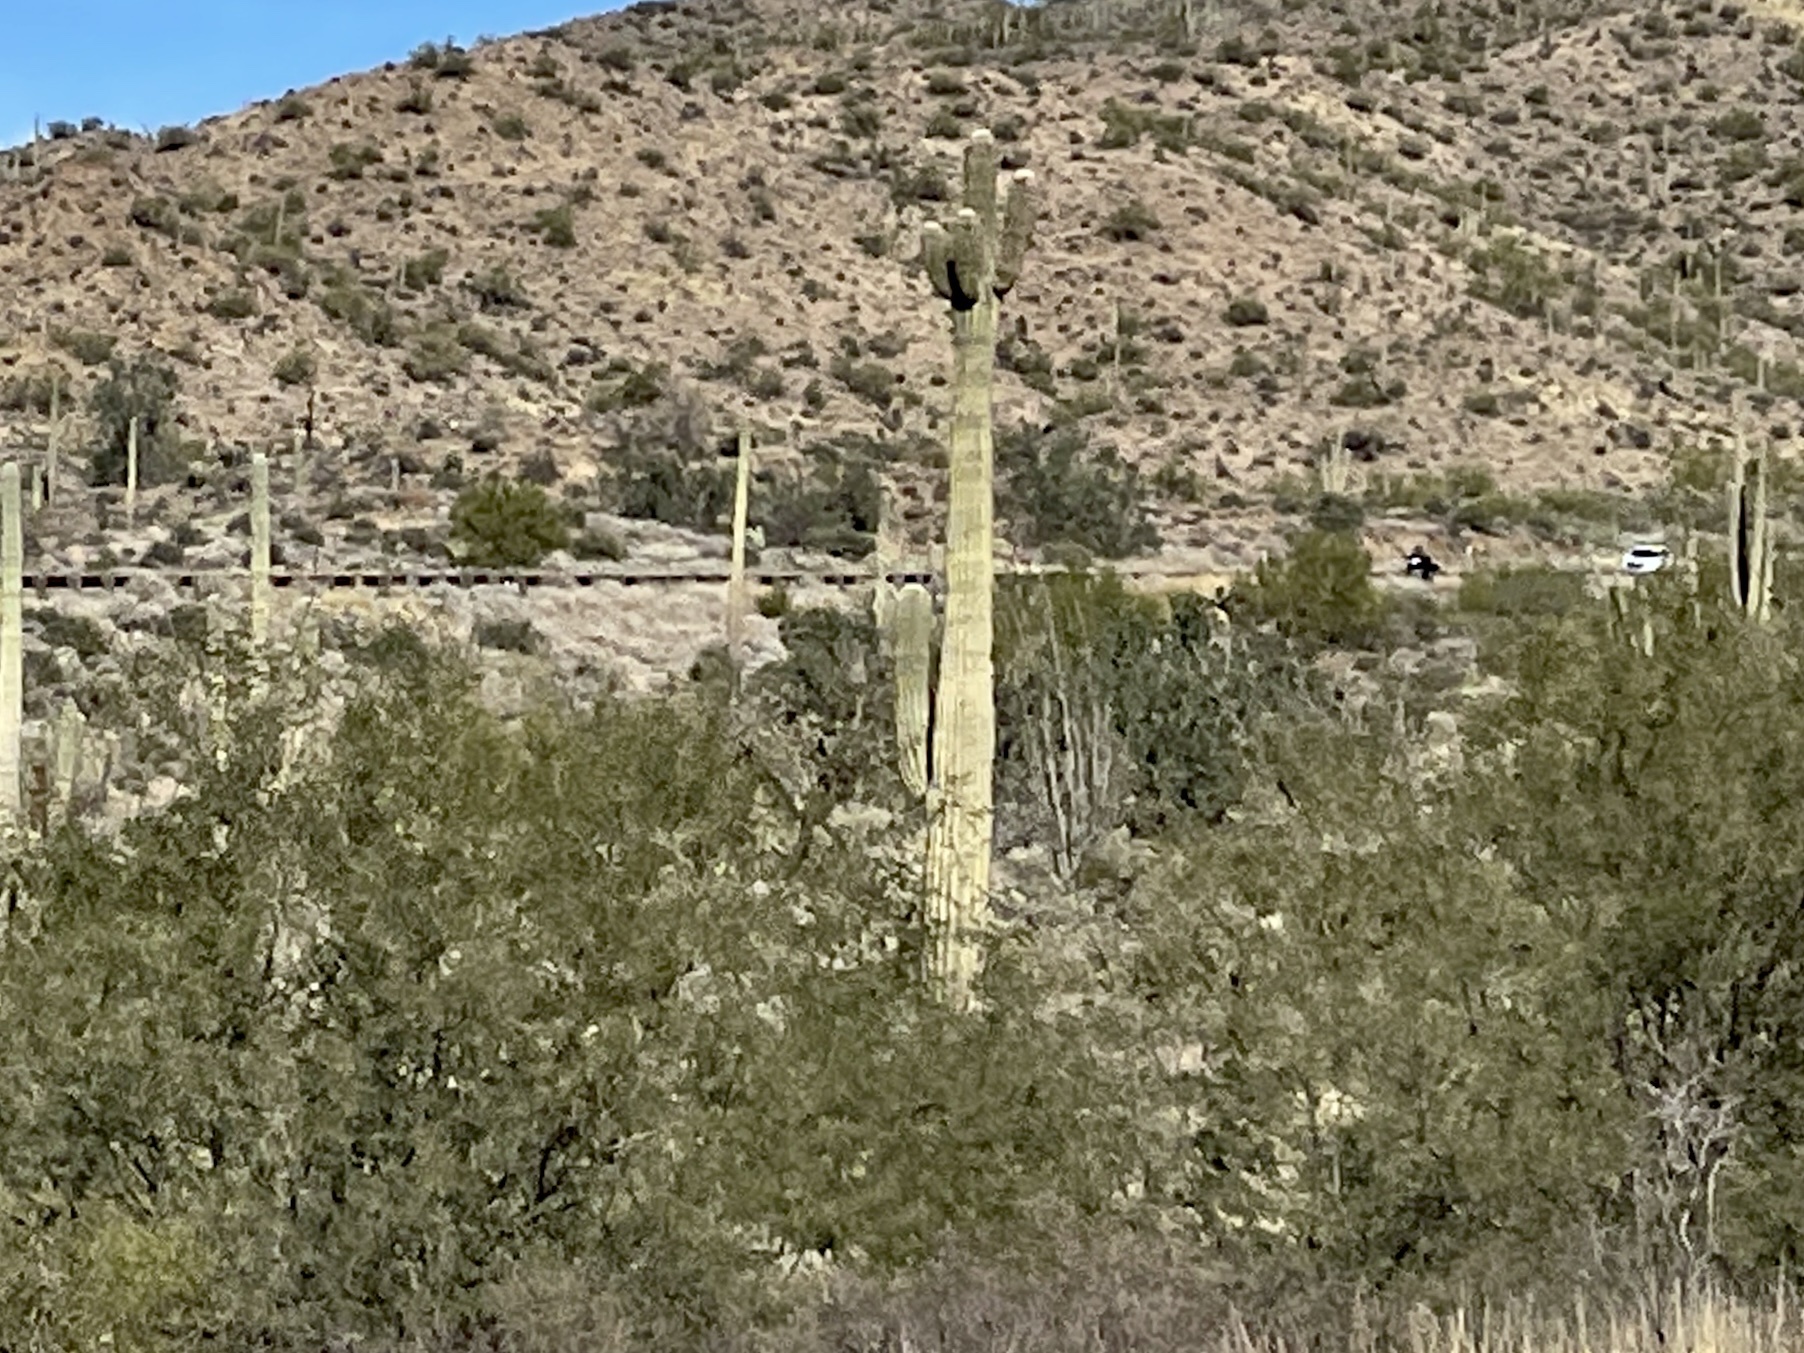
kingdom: Plantae
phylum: Tracheophyta
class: Magnoliopsida
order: Caryophyllales
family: Cactaceae
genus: Carnegiea
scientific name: Carnegiea gigantea
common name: Saguaro
